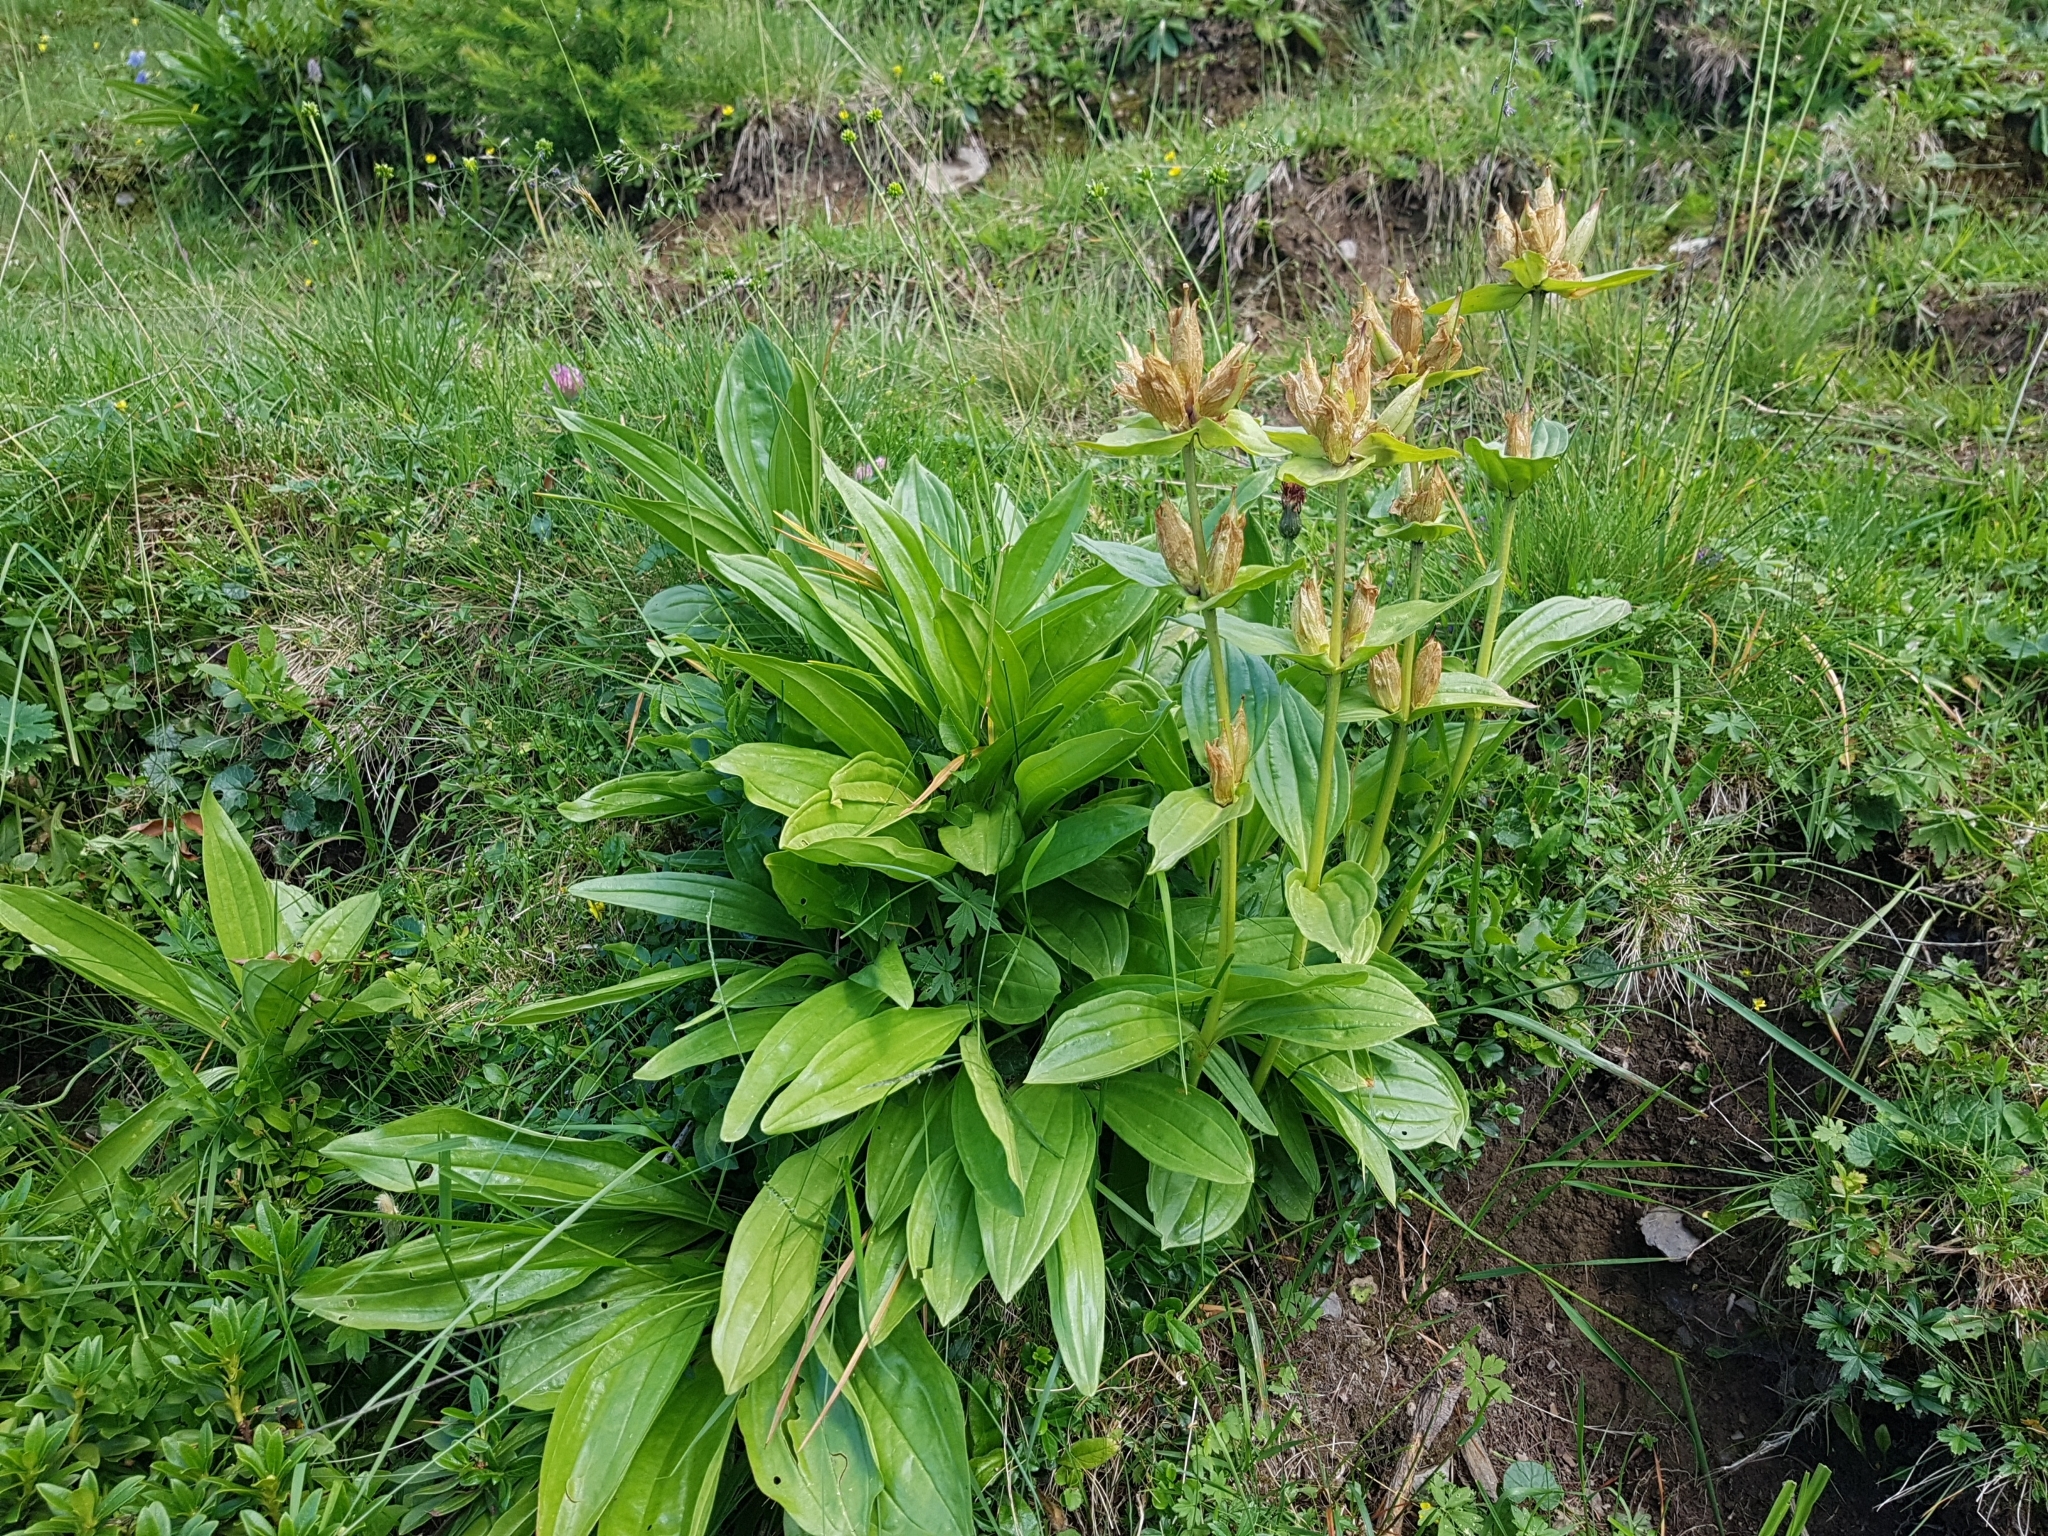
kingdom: Plantae
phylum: Tracheophyta
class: Magnoliopsida
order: Gentianales
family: Gentianaceae
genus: Gentiana
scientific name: Gentiana punctata
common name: Spotted gentian
